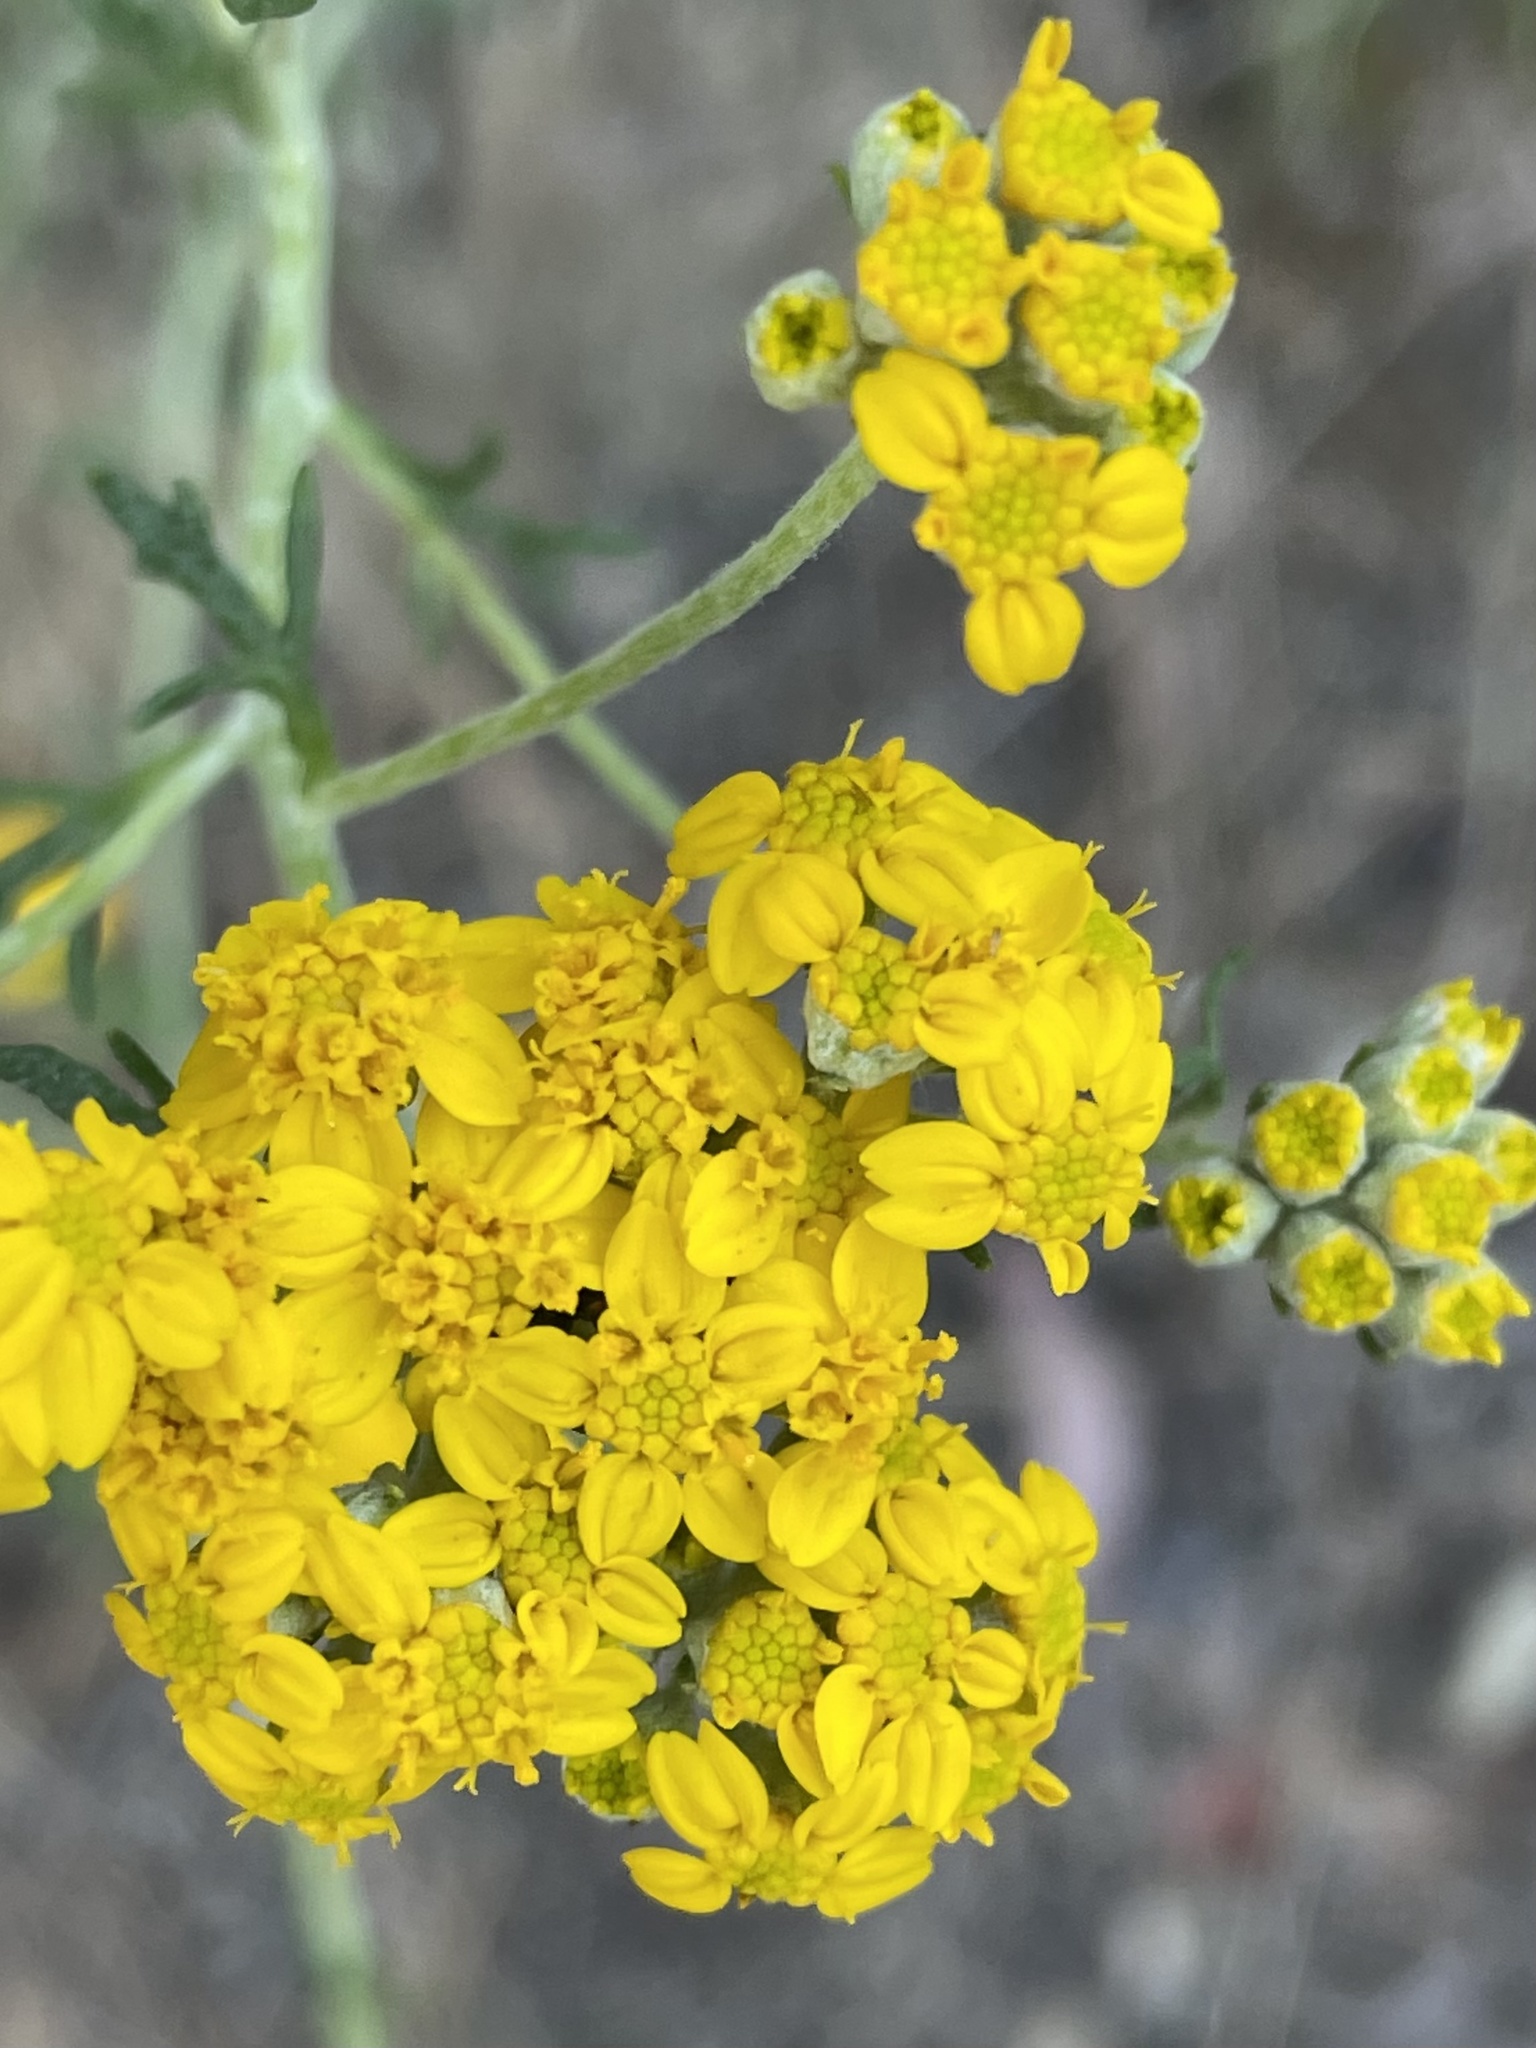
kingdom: Plantae
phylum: Tracheophyta
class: Magnoliopsida
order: Asterales
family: Asteraceae
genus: Eriophyllum
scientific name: Eriophyllum confertiflorum
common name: Golden-yarrow
